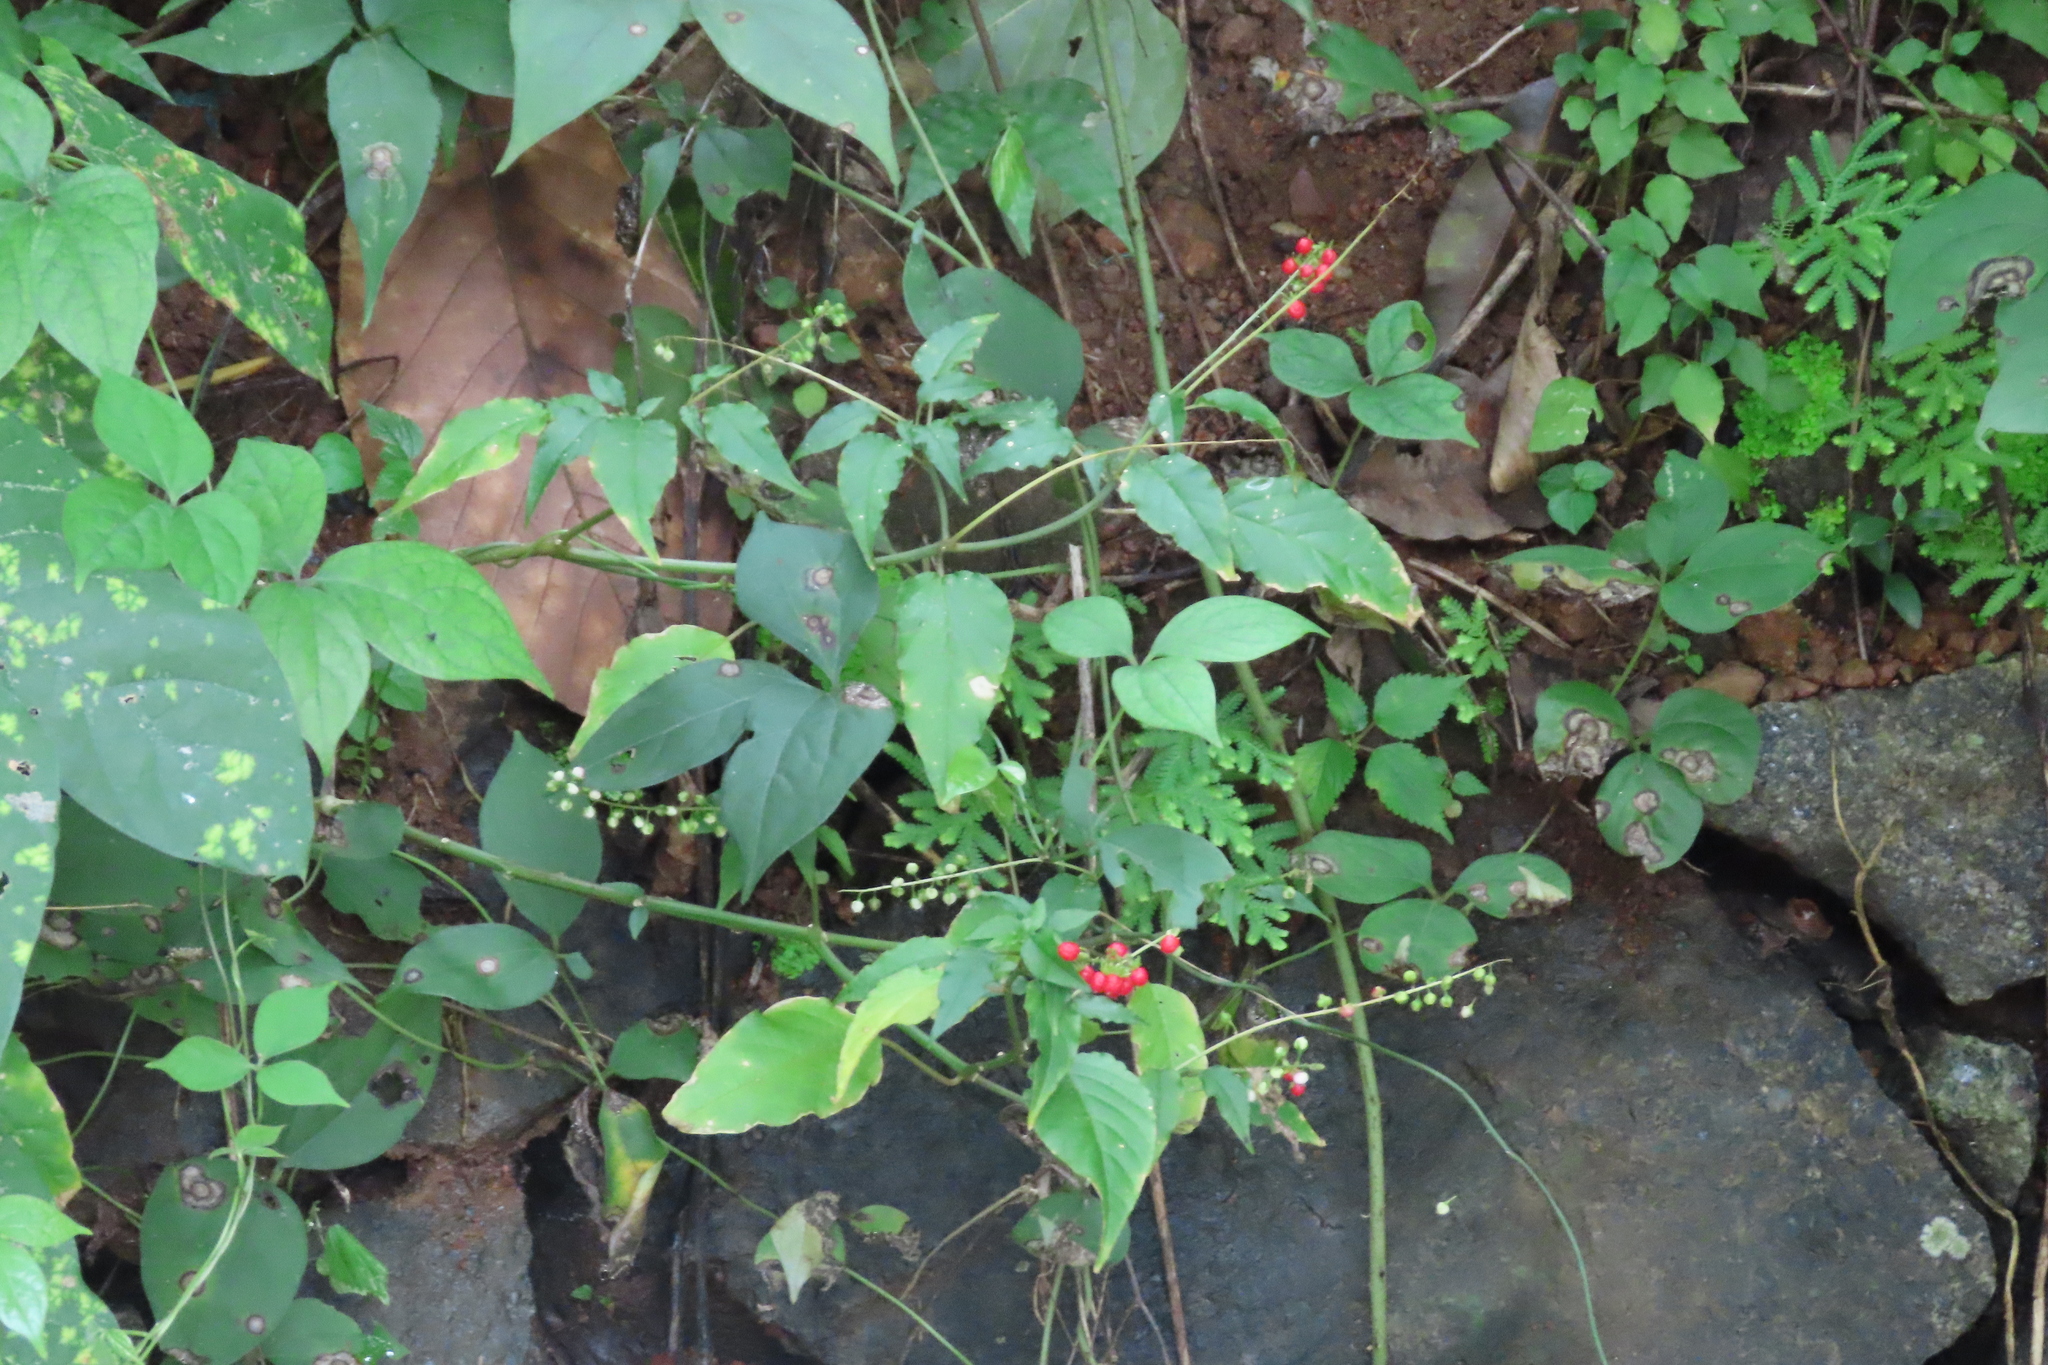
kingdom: Plantae
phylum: Tracheophyta
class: Magnoliopsida
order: Caryophyllales
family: Phytolaccaceae
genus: Rivina
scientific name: Rivina humilis
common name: Rougeplant
